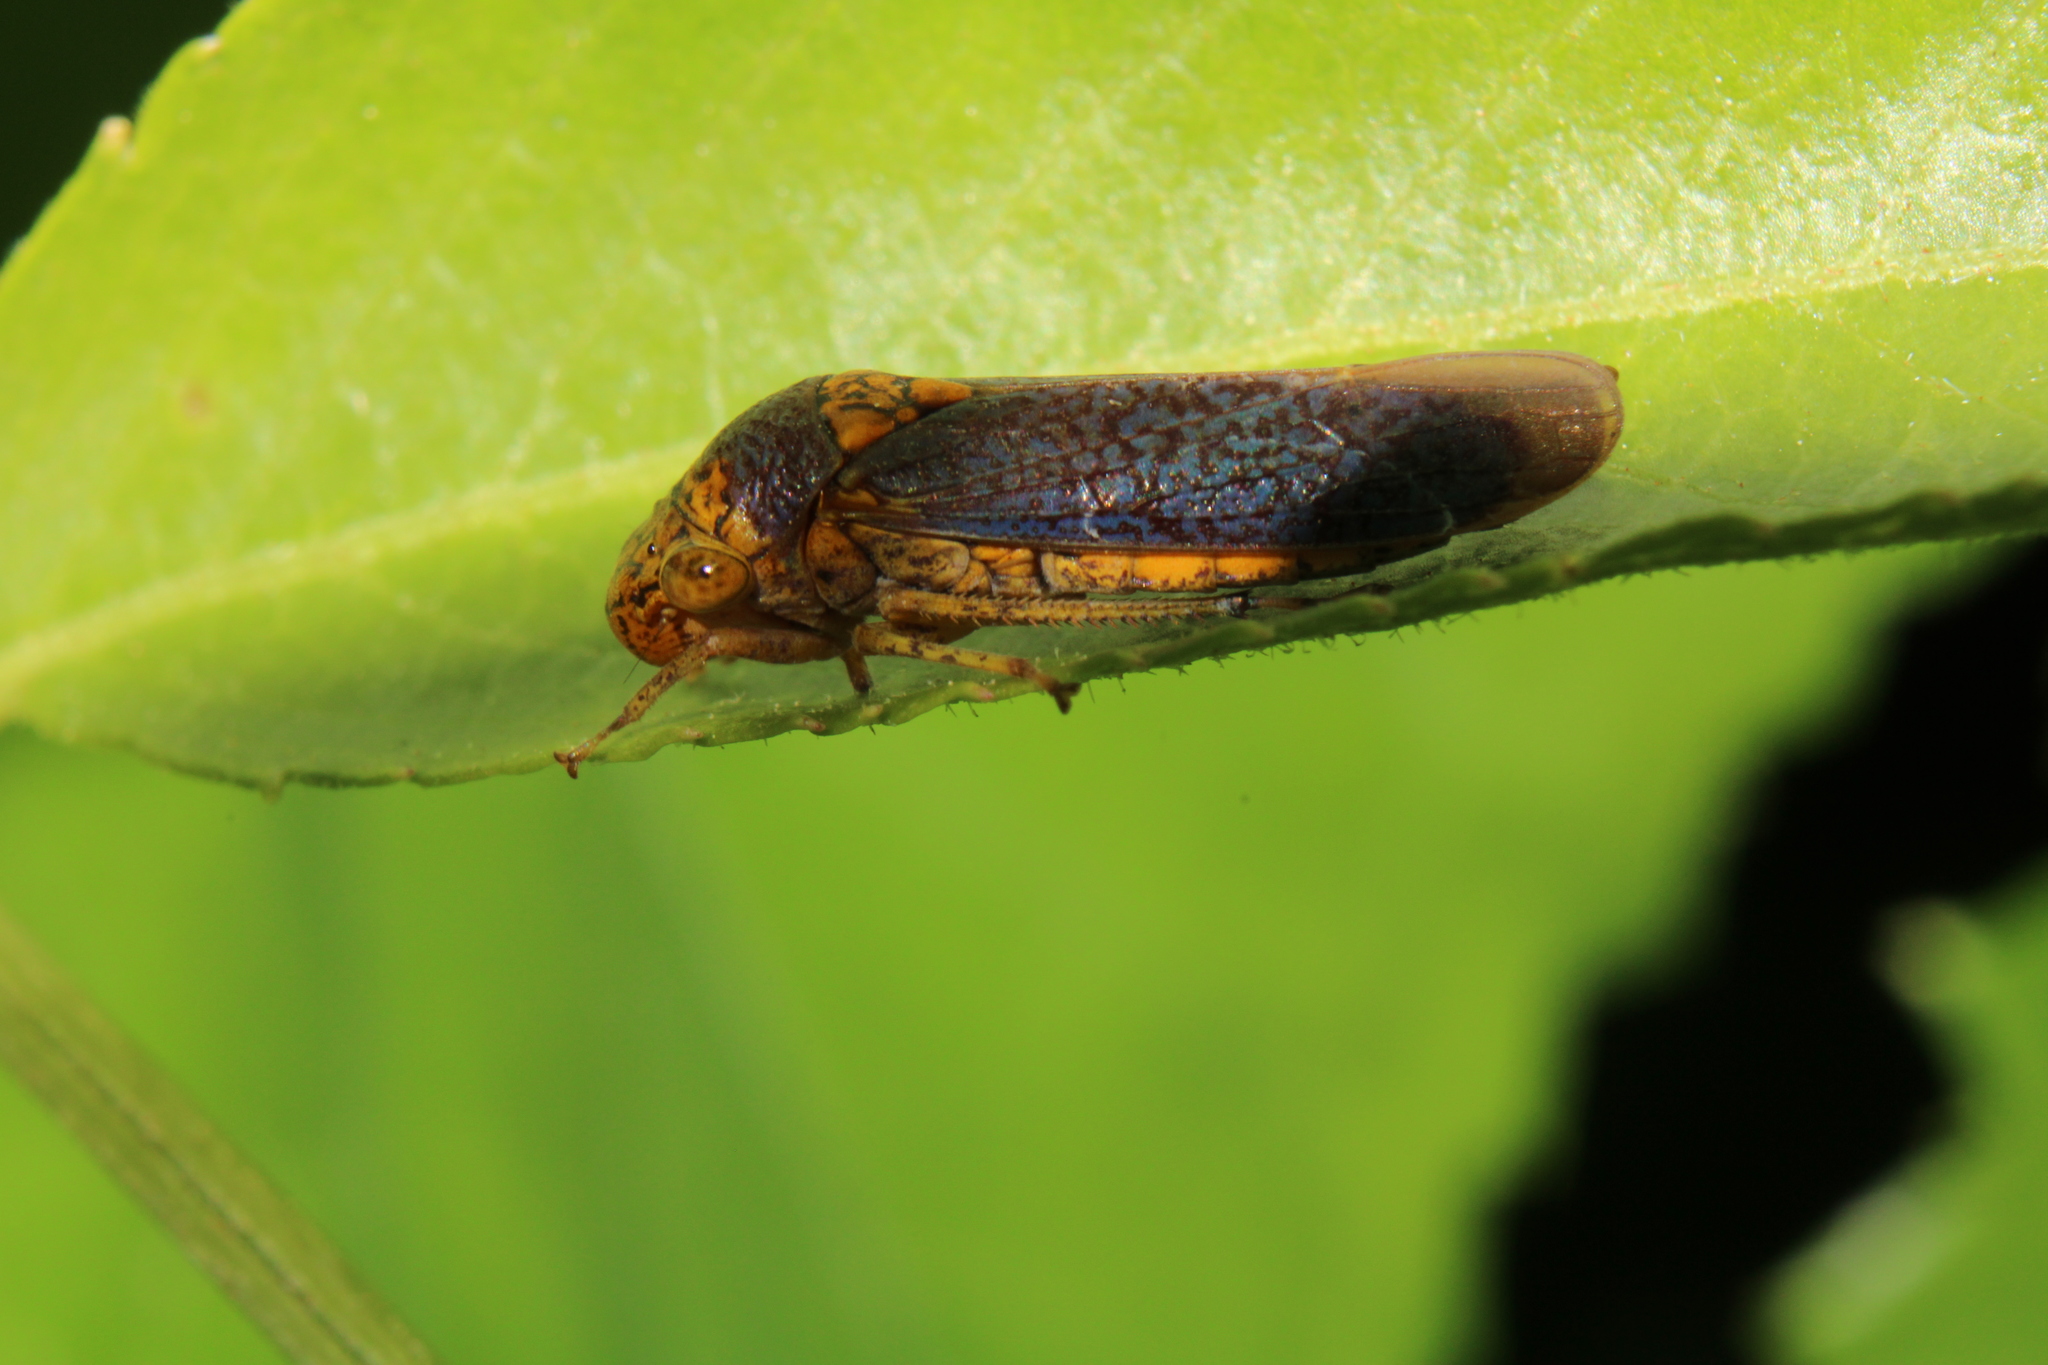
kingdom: Animalia
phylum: Arthropoda
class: Insecta
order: Hemiptera
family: Cicadellidae
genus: Oncometopia
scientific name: Oncometopia orbona
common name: Broad-headed sharpshooter
